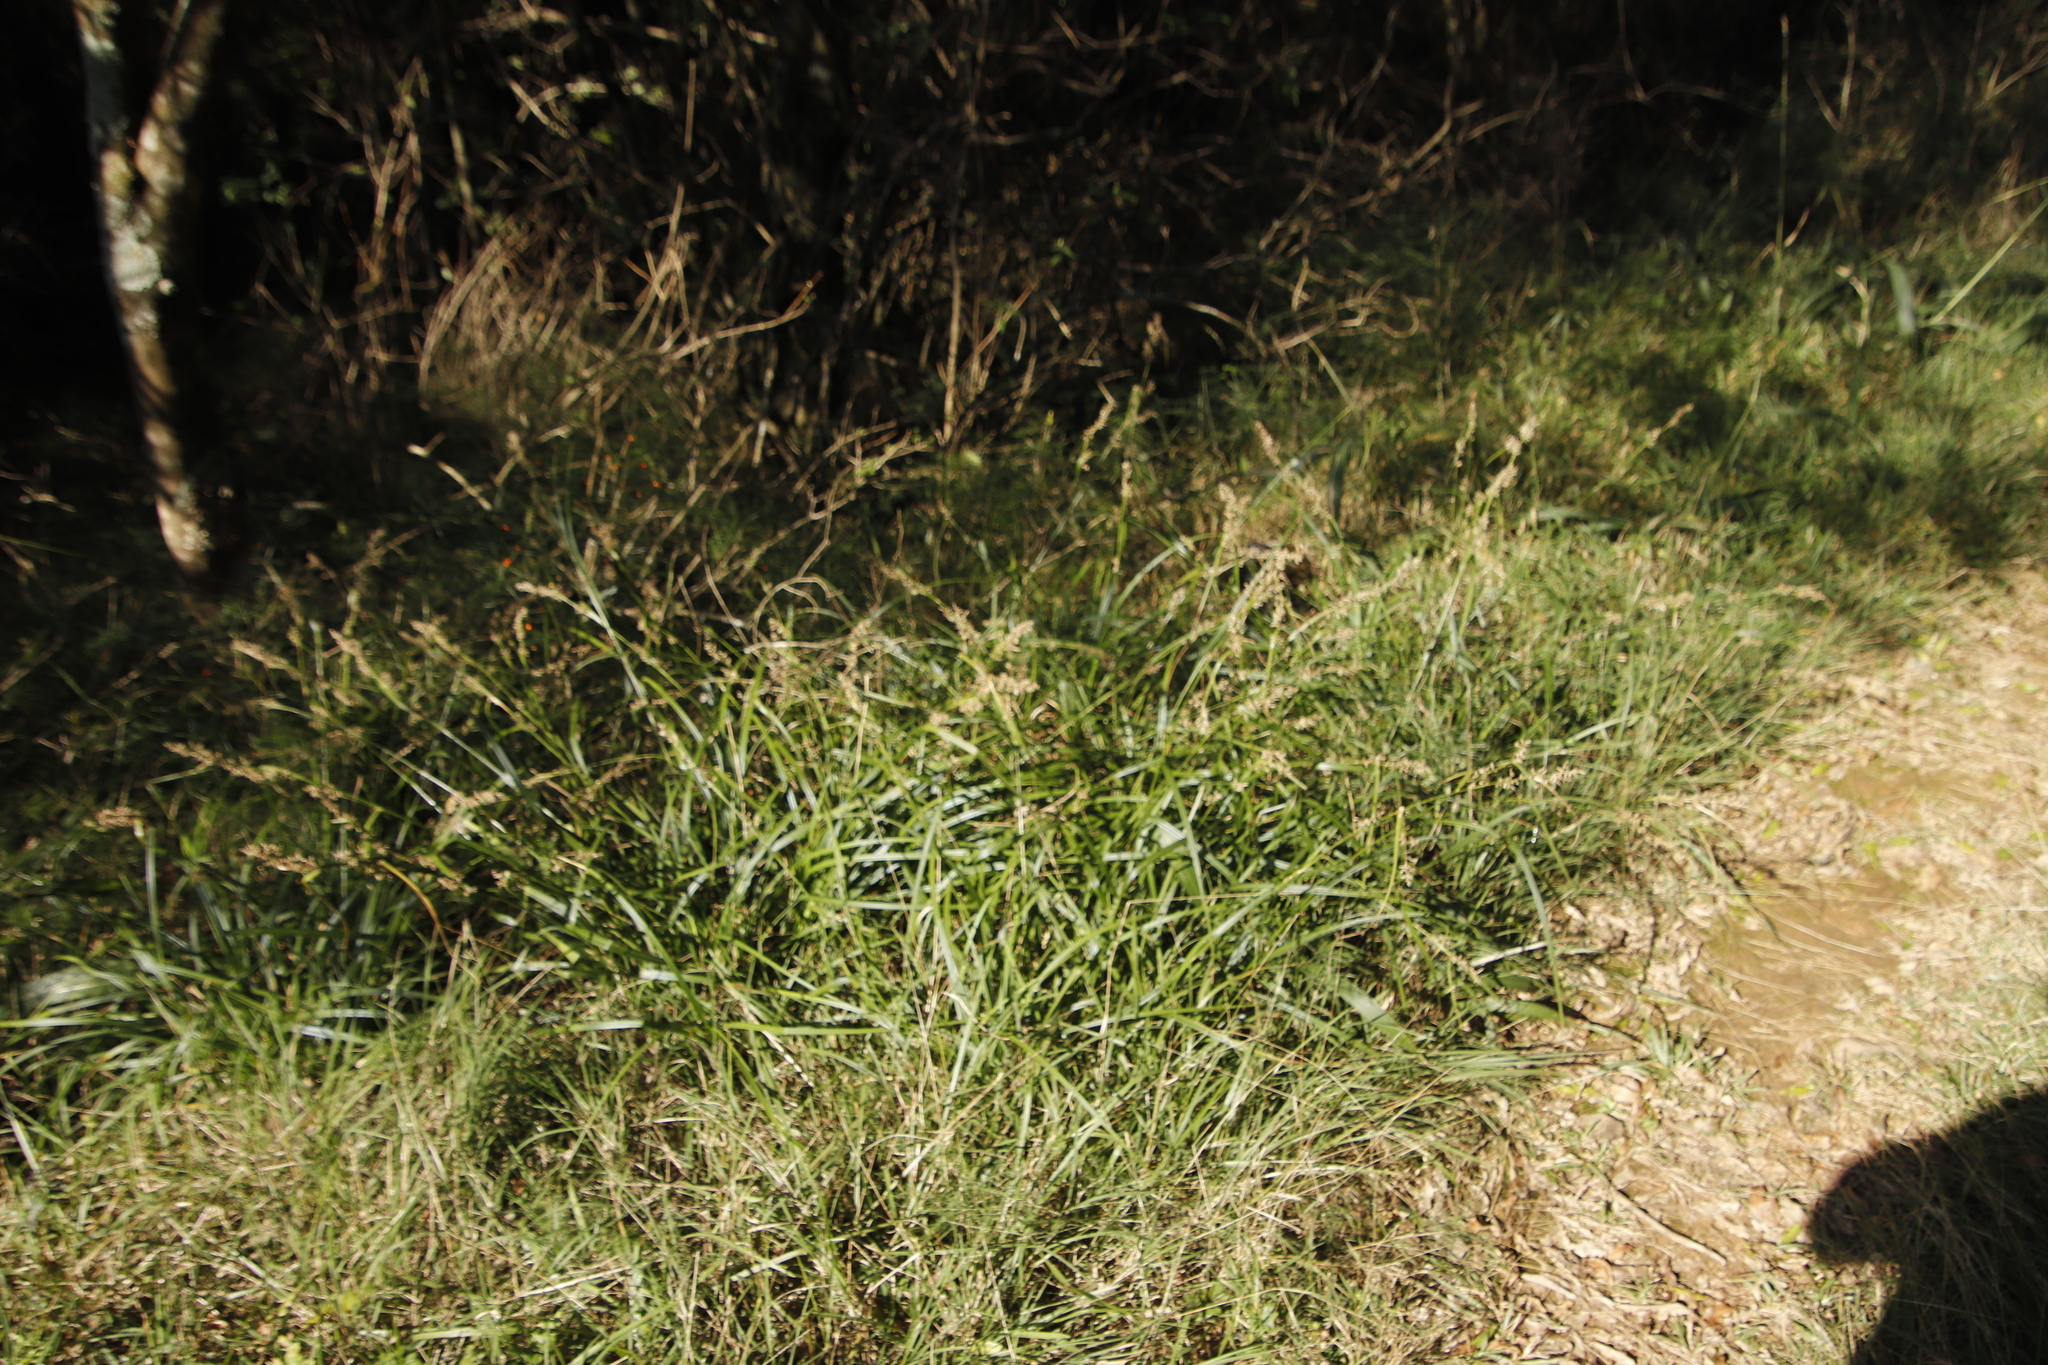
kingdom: Plantae
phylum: Tracheophyta
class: Liliopsida
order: Poales
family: Cyperaceae
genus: Carex
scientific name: Carex spicatopaniculata
